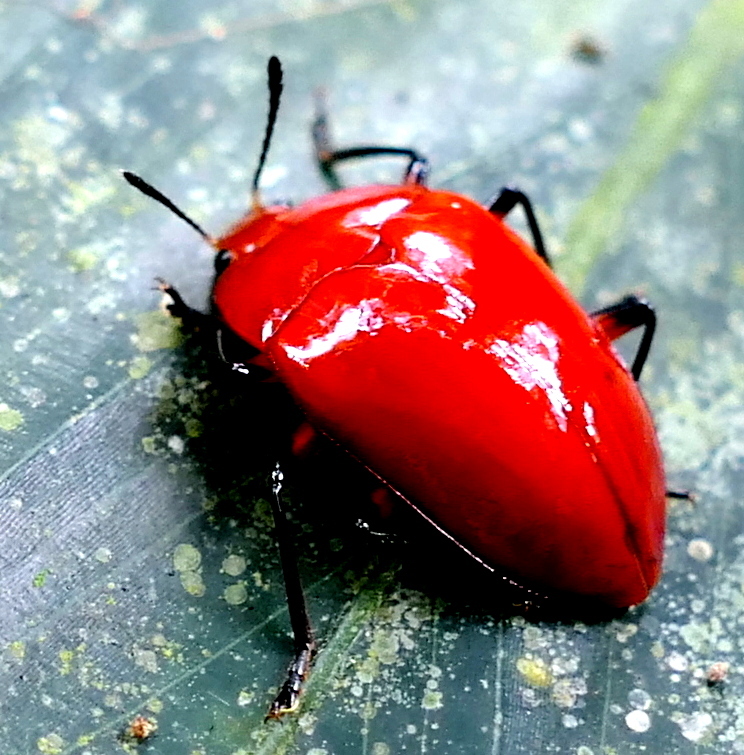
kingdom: Animalia
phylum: Arthropoda
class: Insecta
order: Coleoptera
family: Erotylidae
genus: Iphiclus
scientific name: Iphiclus
